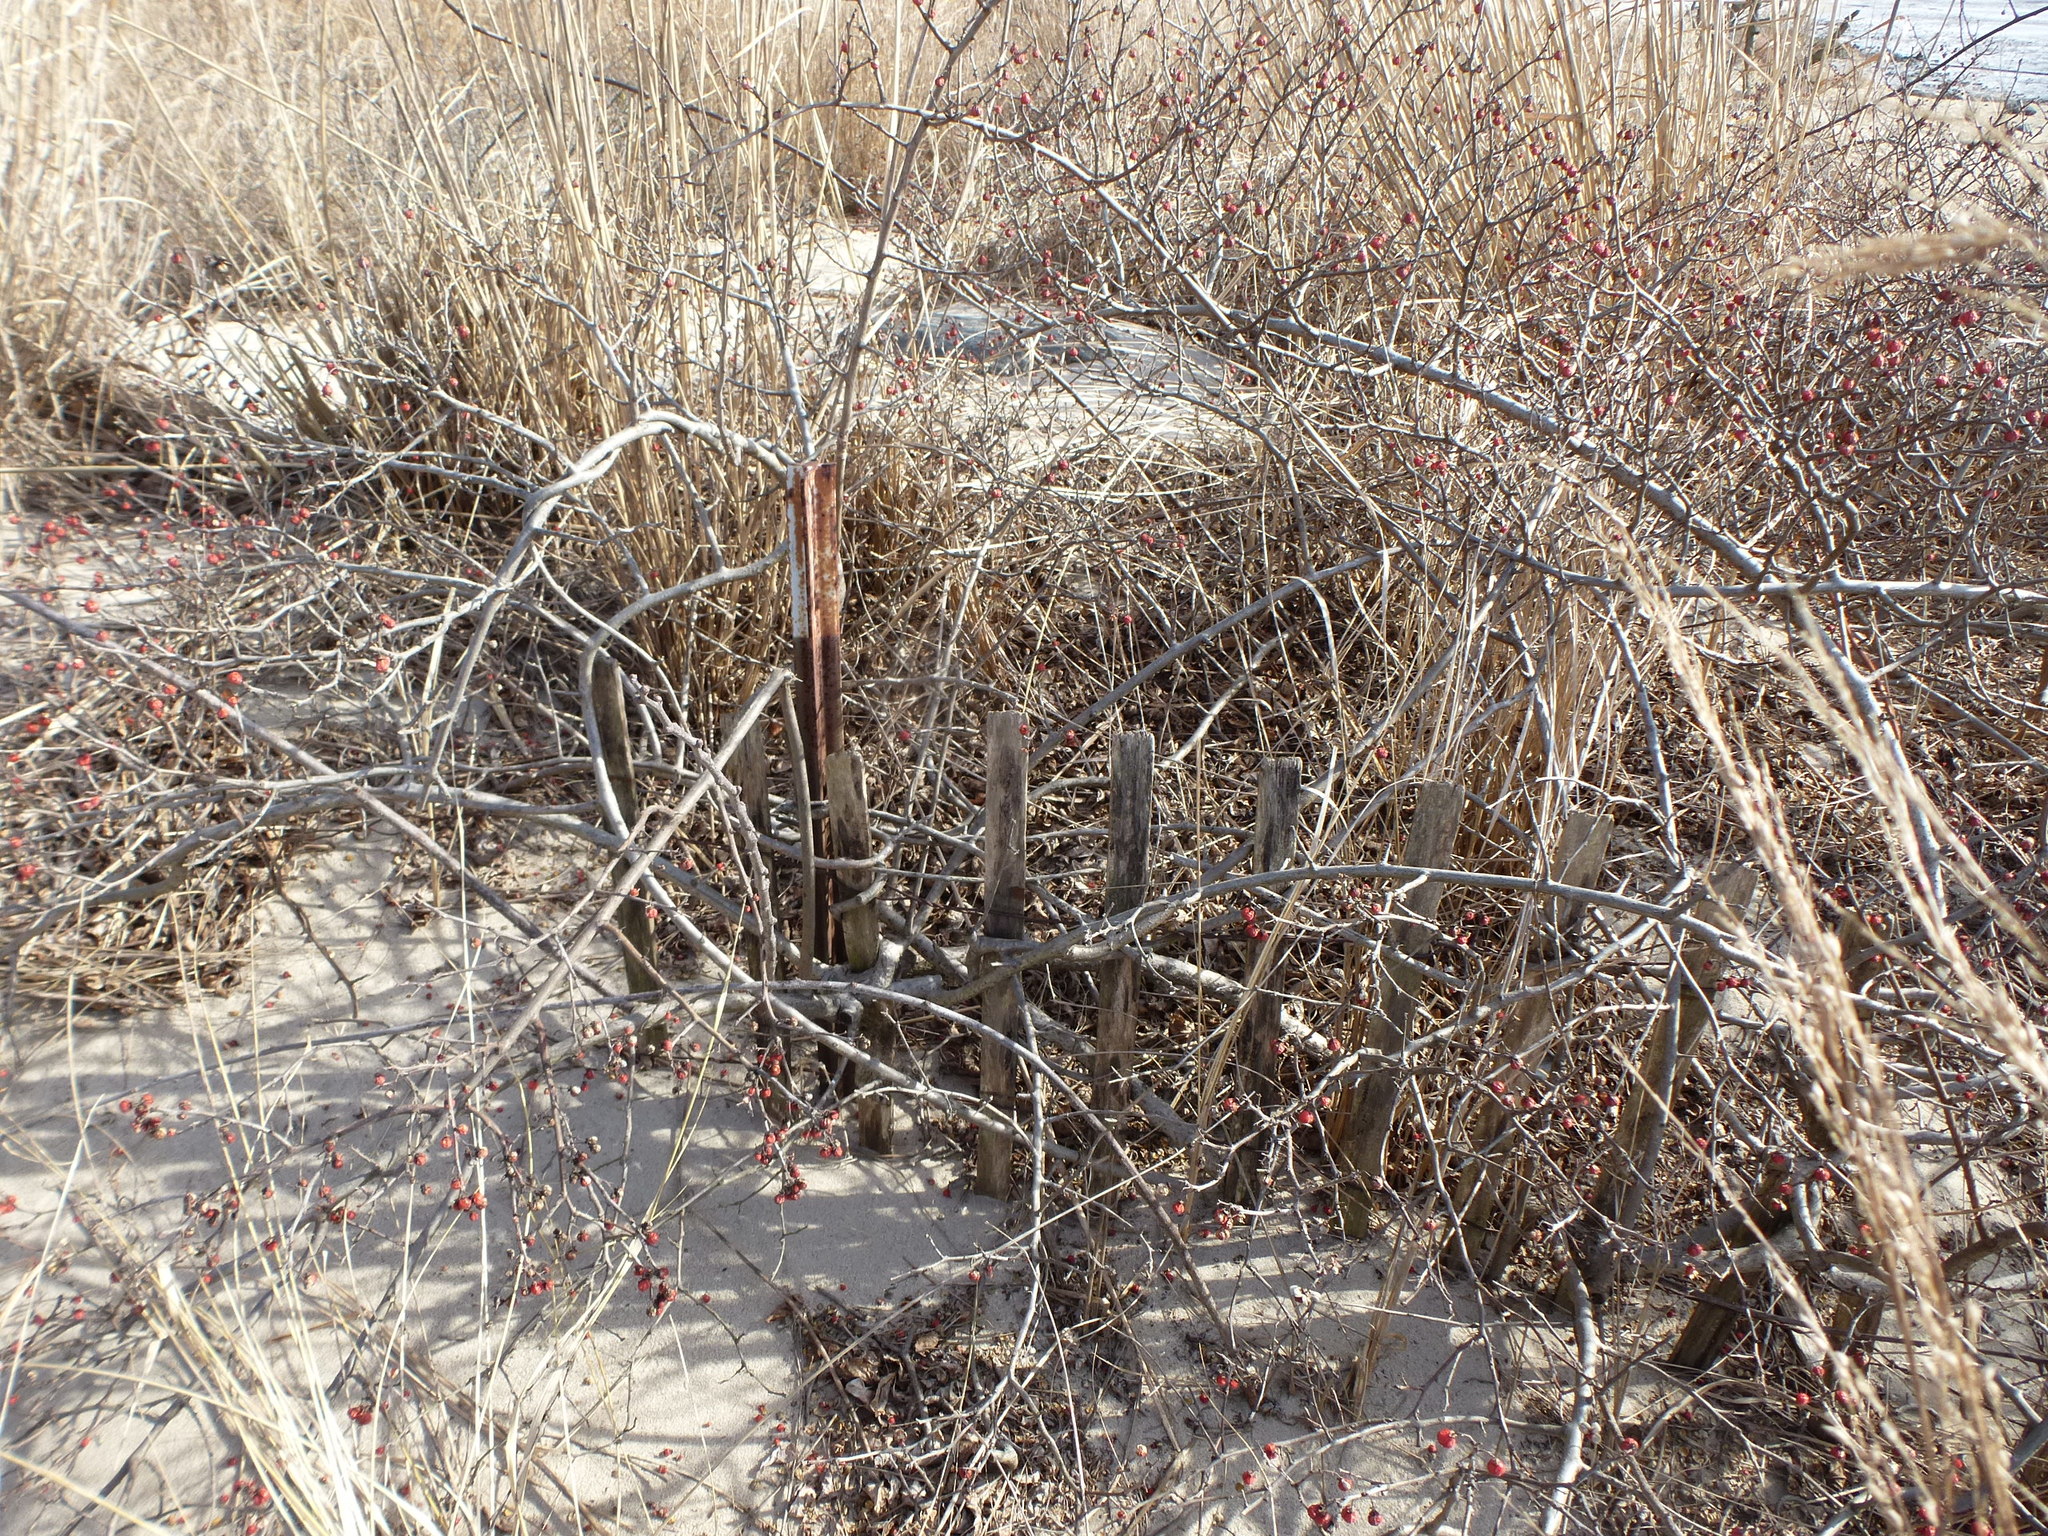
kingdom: Plantae
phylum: Tracheophyta
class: Magnoliopsida
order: Celastrales
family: Celastraceae
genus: Celastrus
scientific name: Celastrus orbiculatus
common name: Oriental bittersweet
